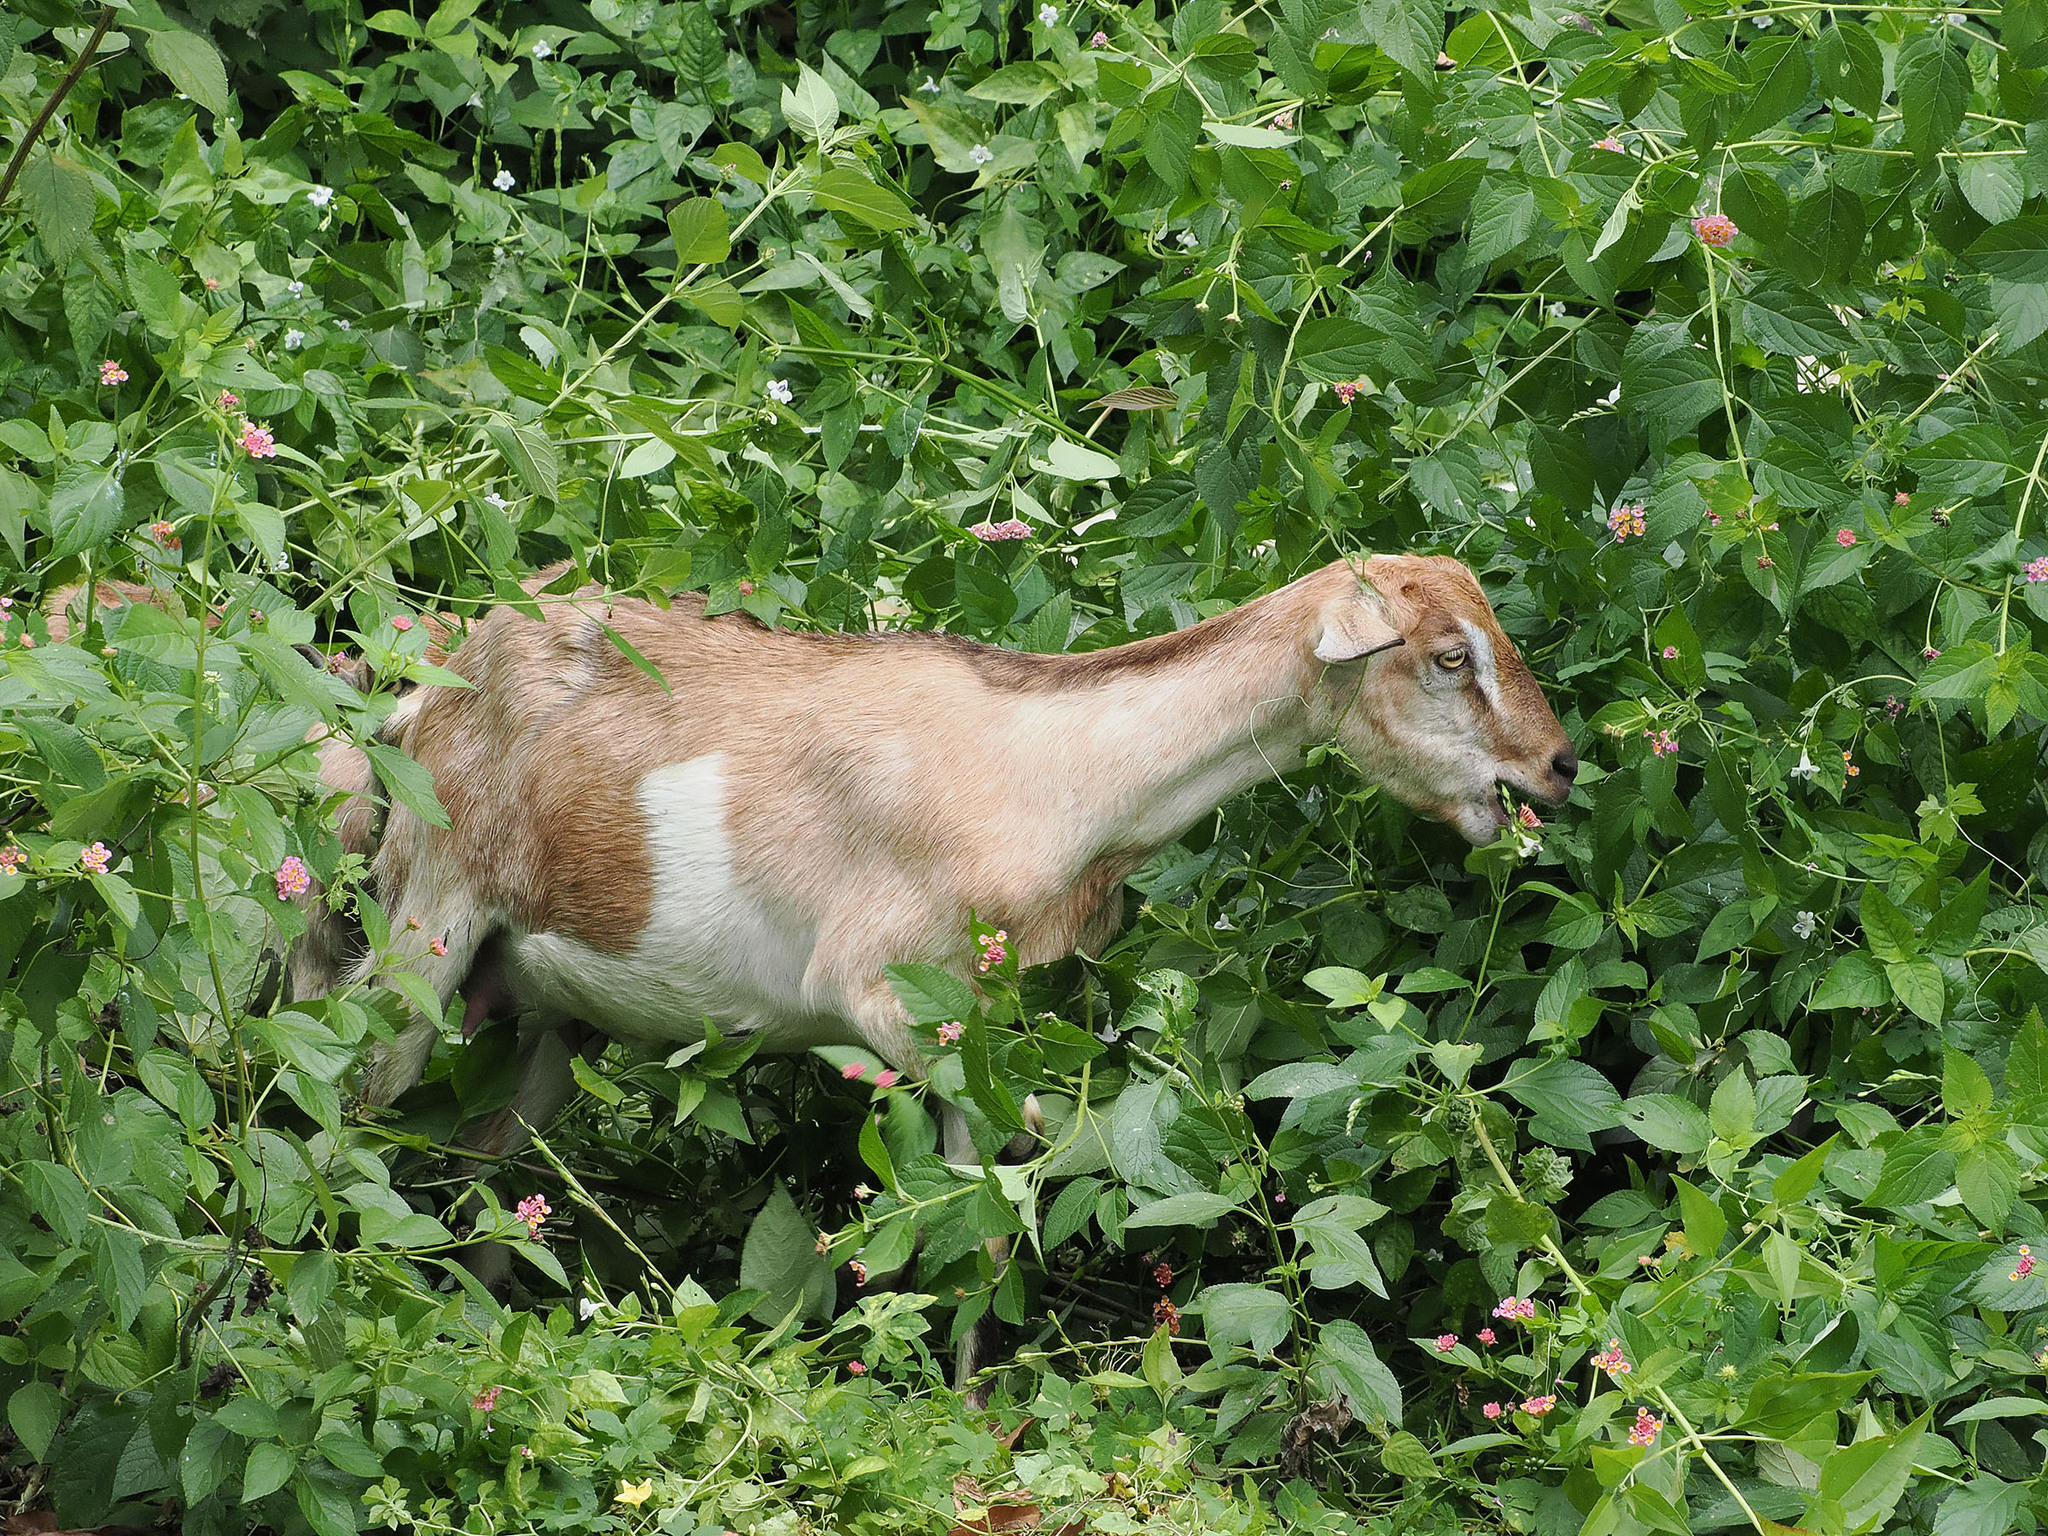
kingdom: Animalia
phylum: Chordata
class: Mammalia
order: Artiodactyla
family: Bovidae
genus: Capra
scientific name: Capra hircus
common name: Domestic goat
